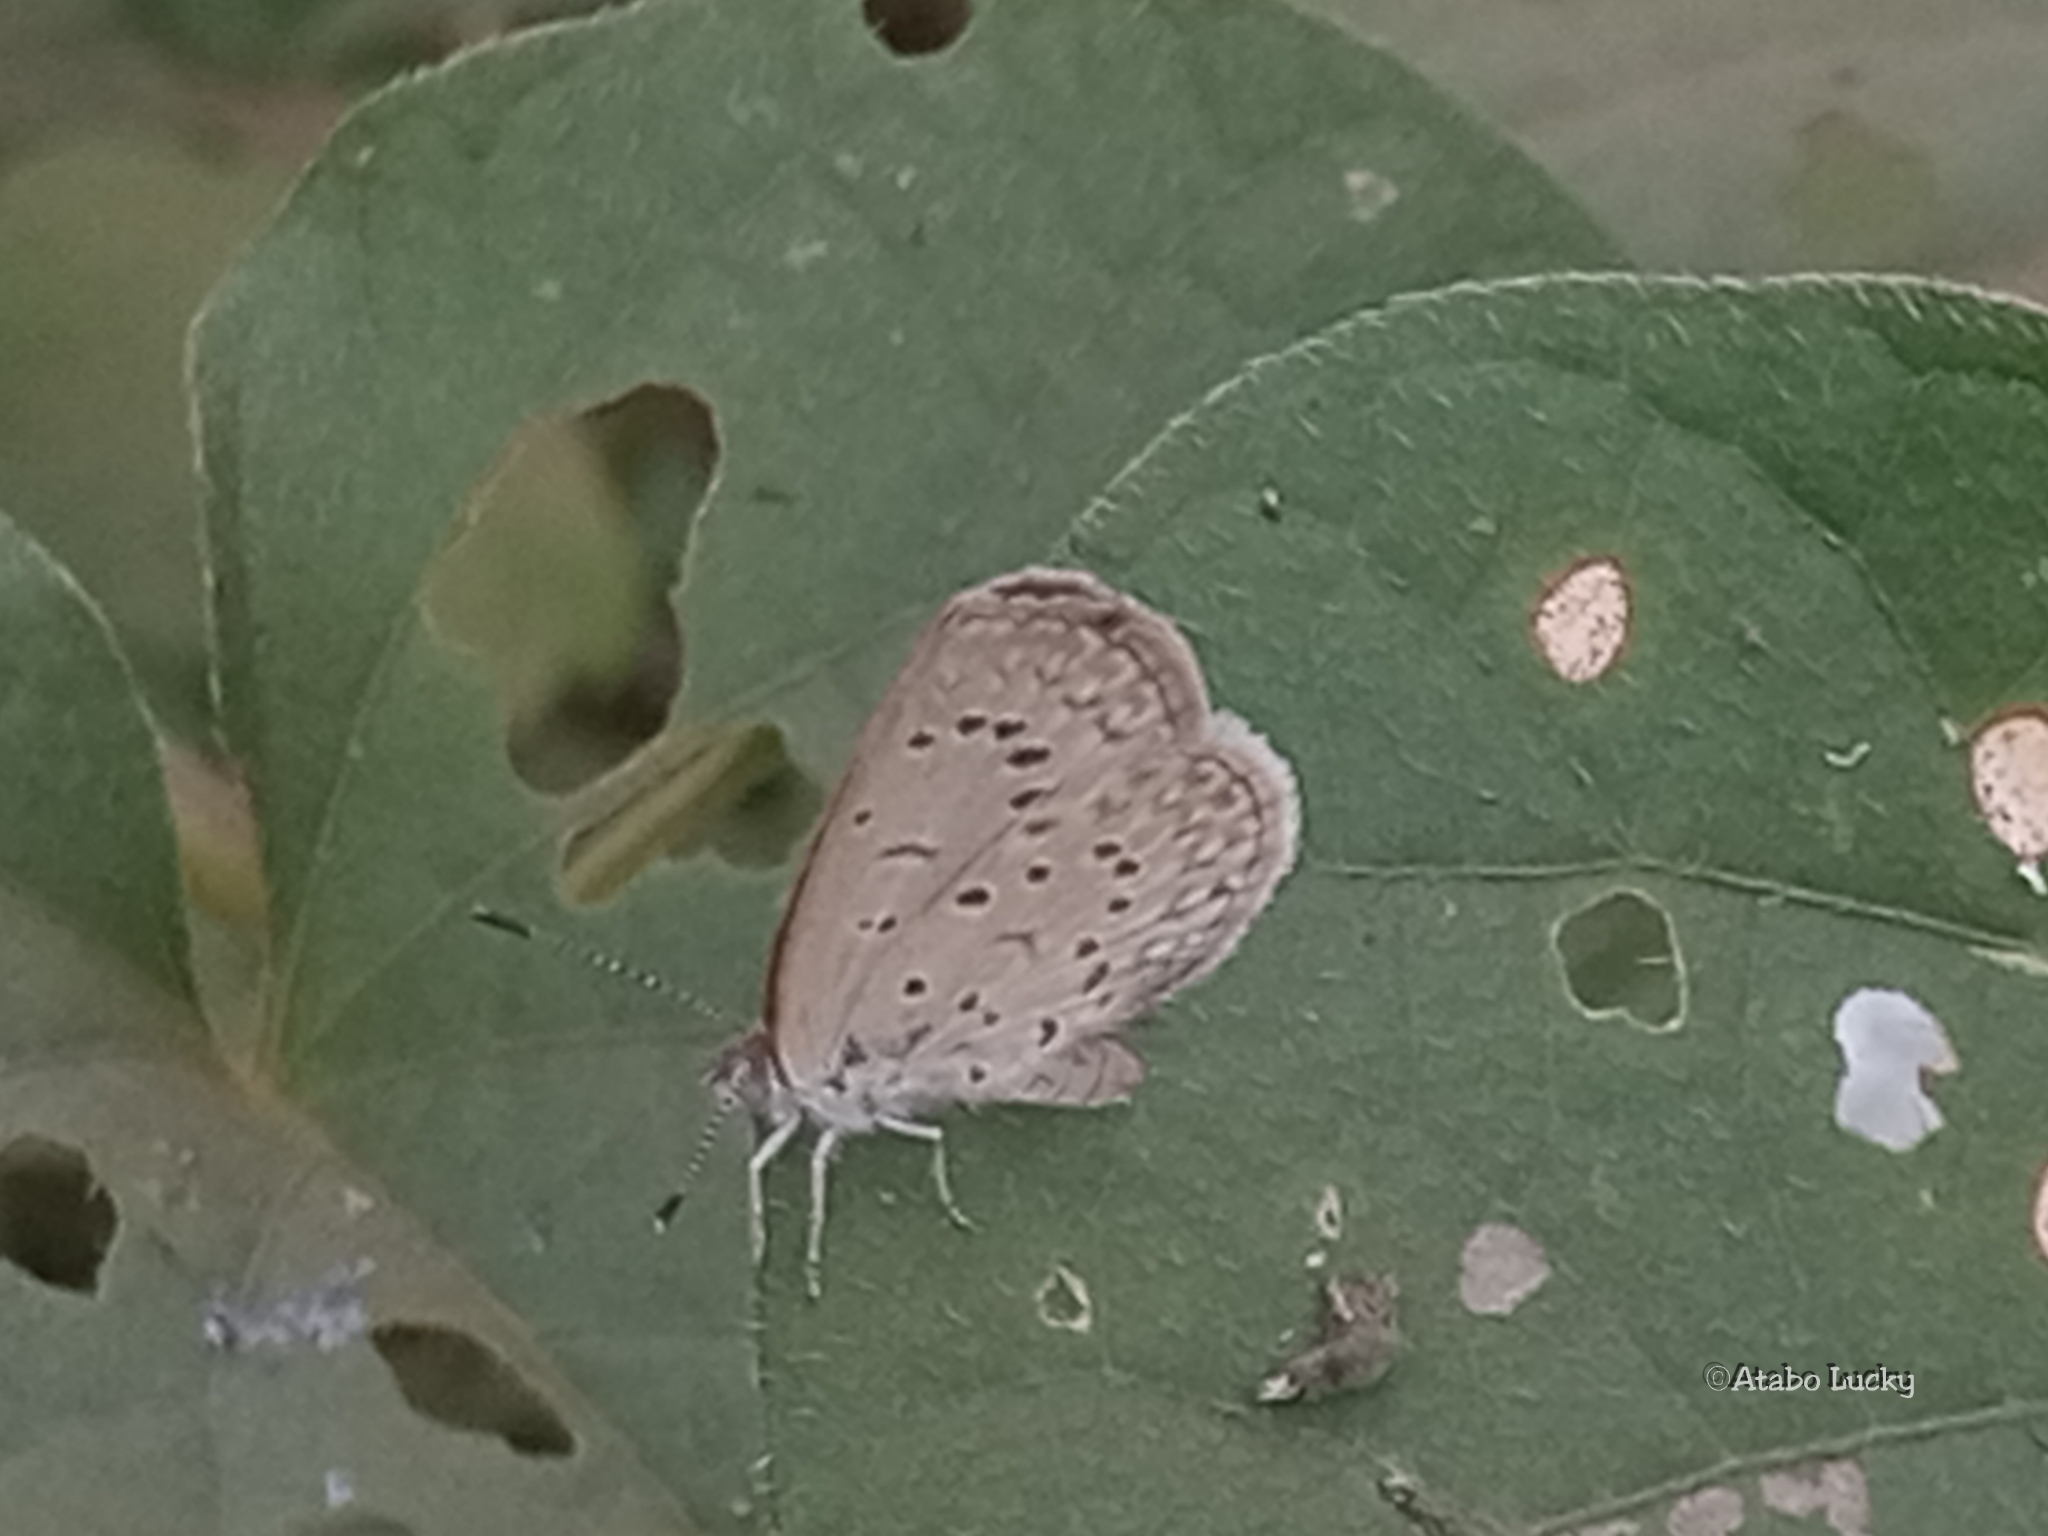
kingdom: Animalia
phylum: Arthropoda
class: Insecta
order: Lepidoptera
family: Lycaenidae
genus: Zizeeria
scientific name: Zizeeria knysna
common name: African grass blue
